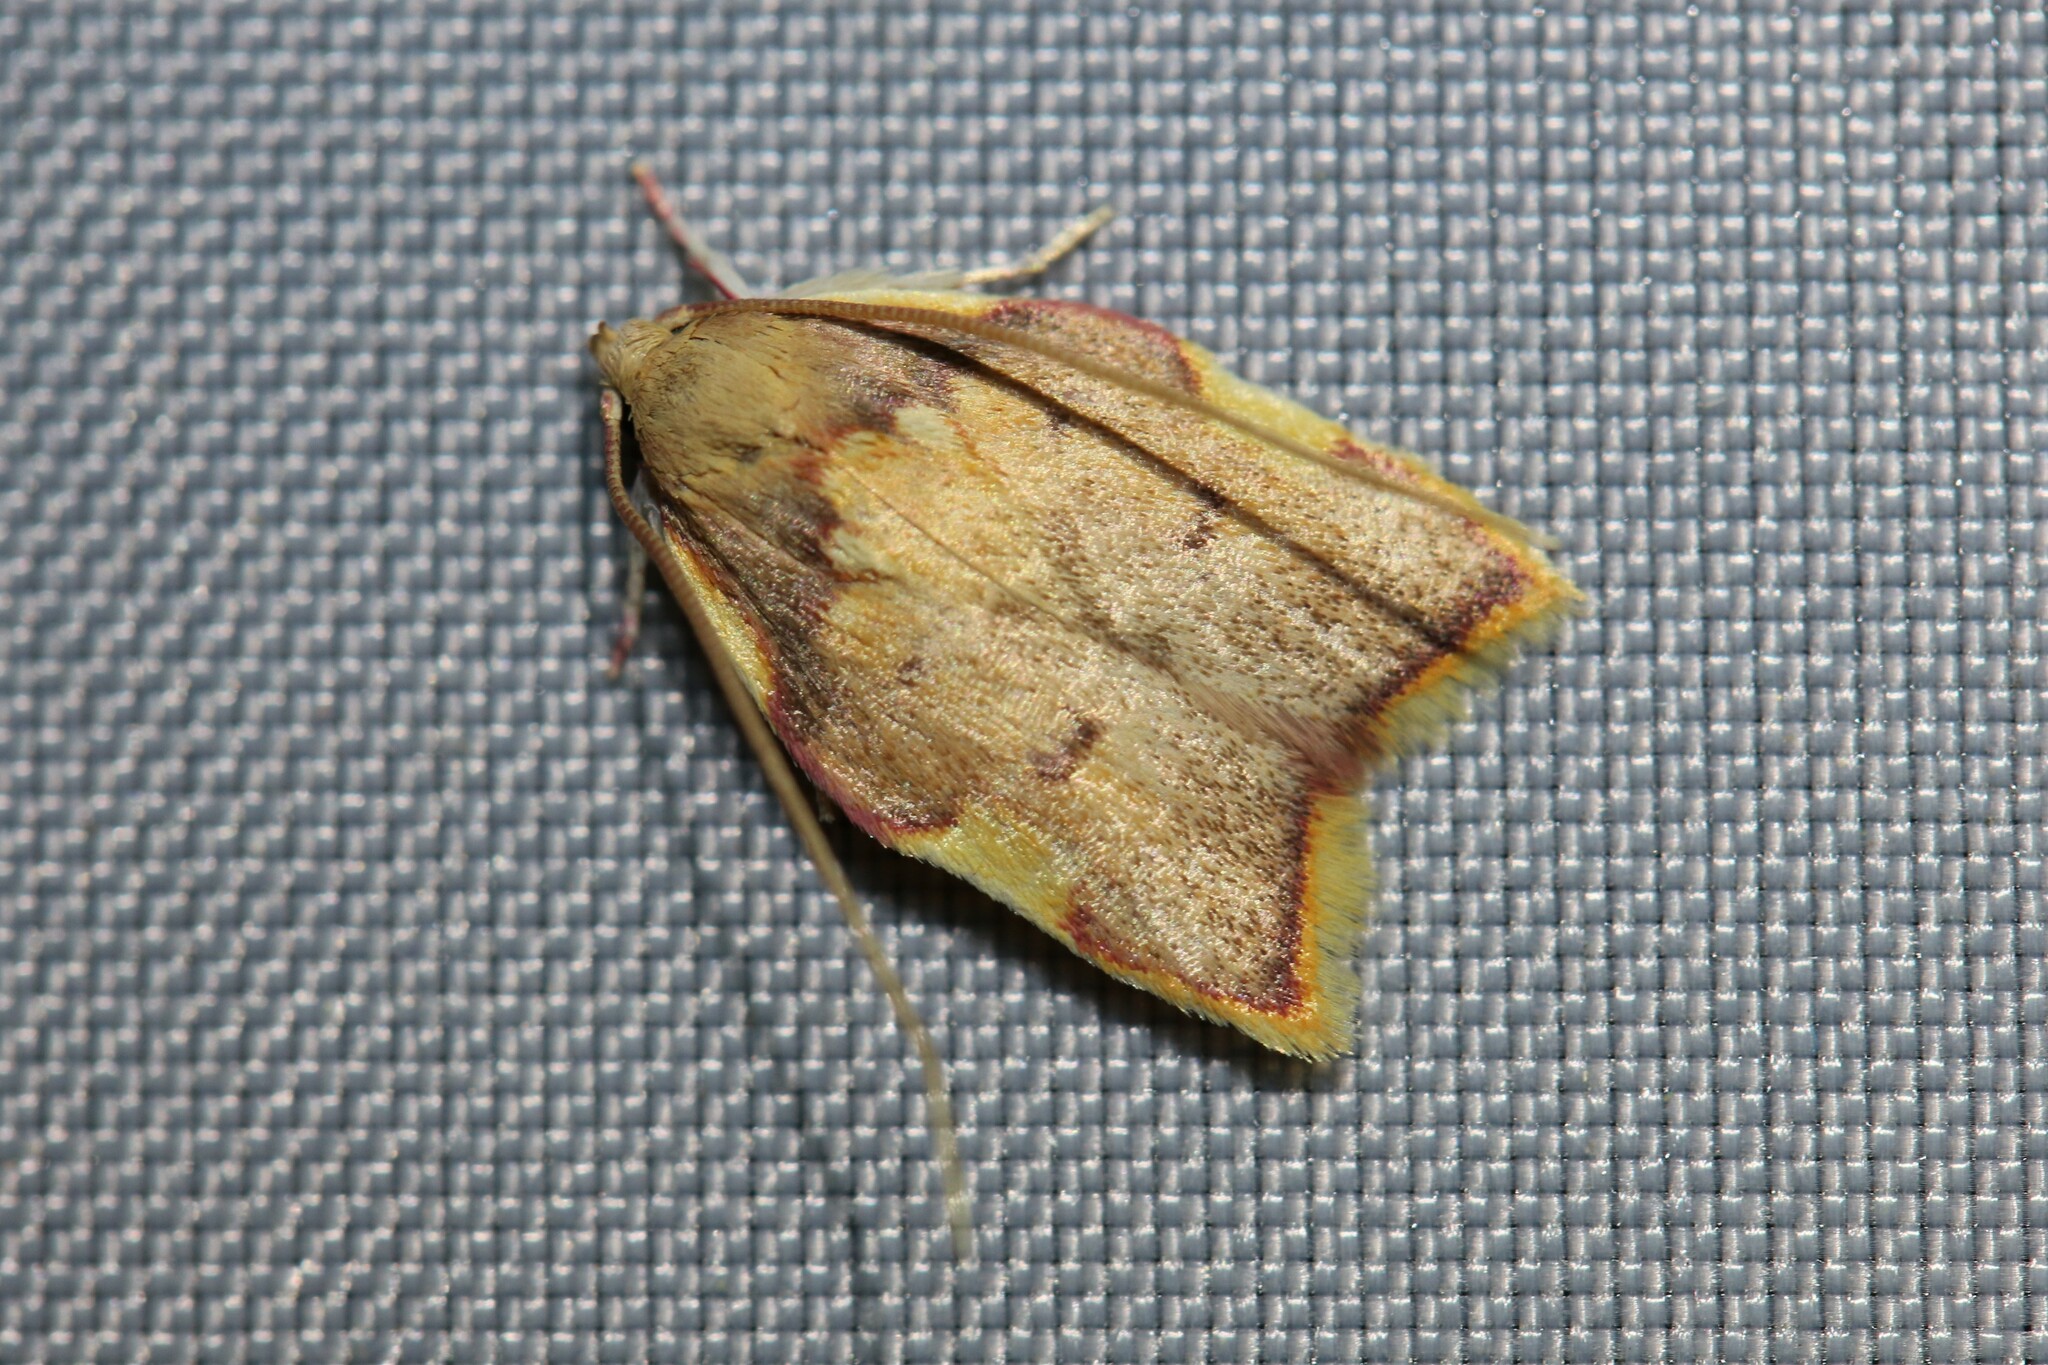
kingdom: Animalia
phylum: Arthropoda
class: Insecta
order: Lepidoptera
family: Peleopodidae
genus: Carcina
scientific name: Carcina quercana
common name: Moth
